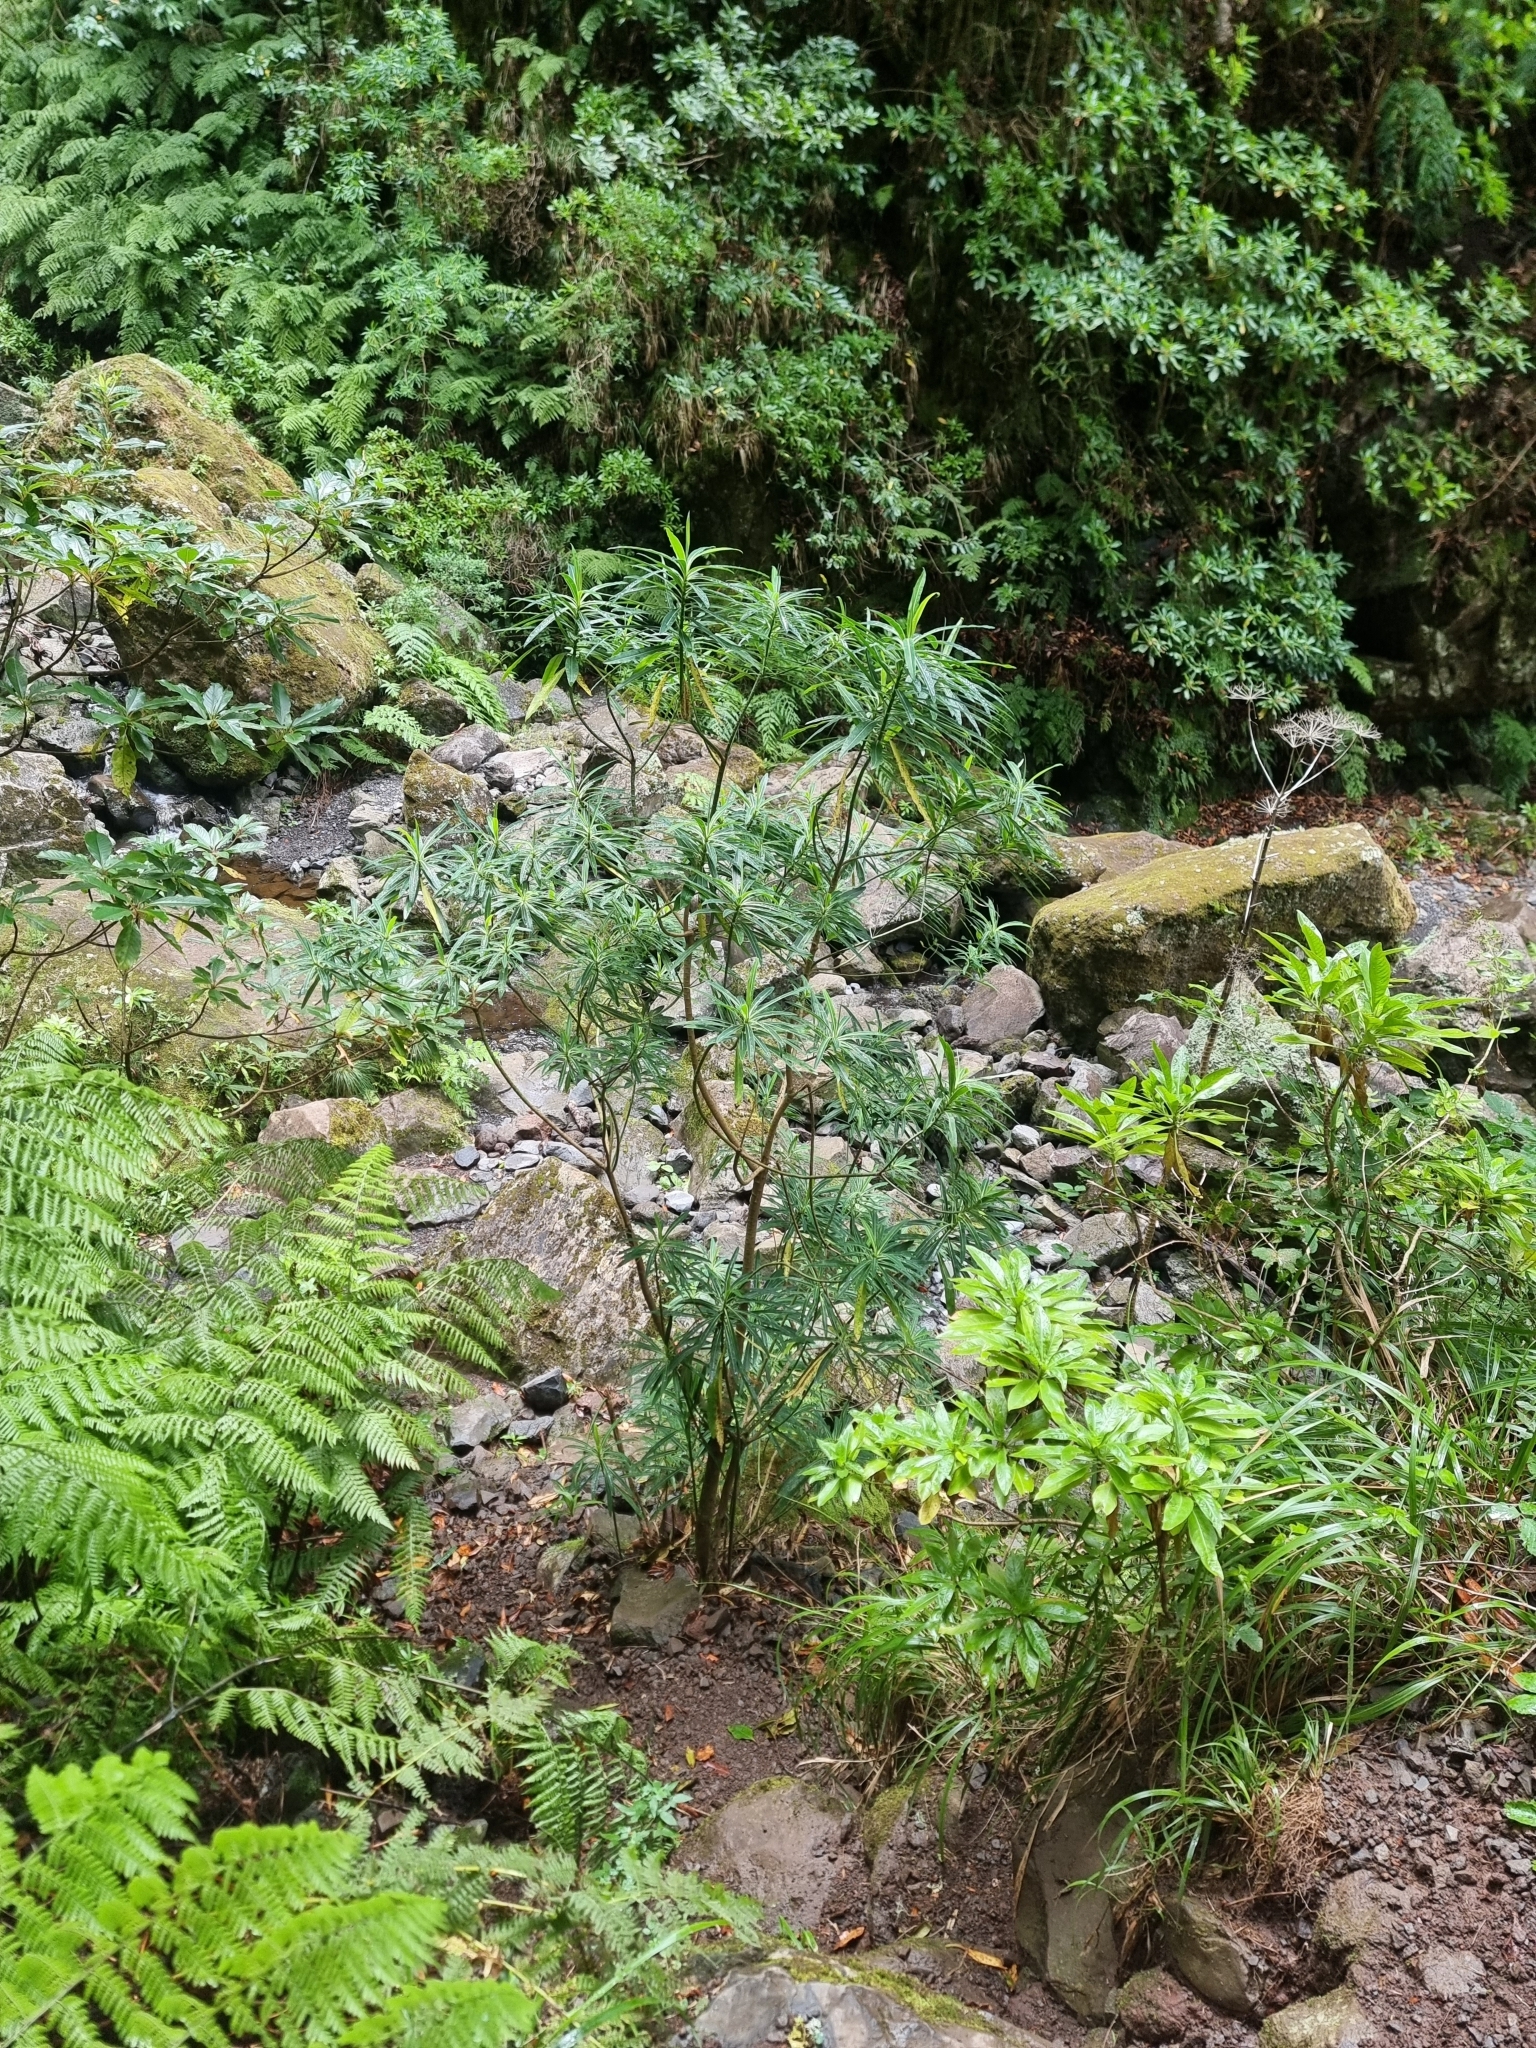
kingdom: Plantae
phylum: Tracheophyta
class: Magnoliopsida
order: Malpighiales
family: Euphorbiaceae
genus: Euphorbia
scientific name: Euphorbia mellifera
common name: Canary spurge
